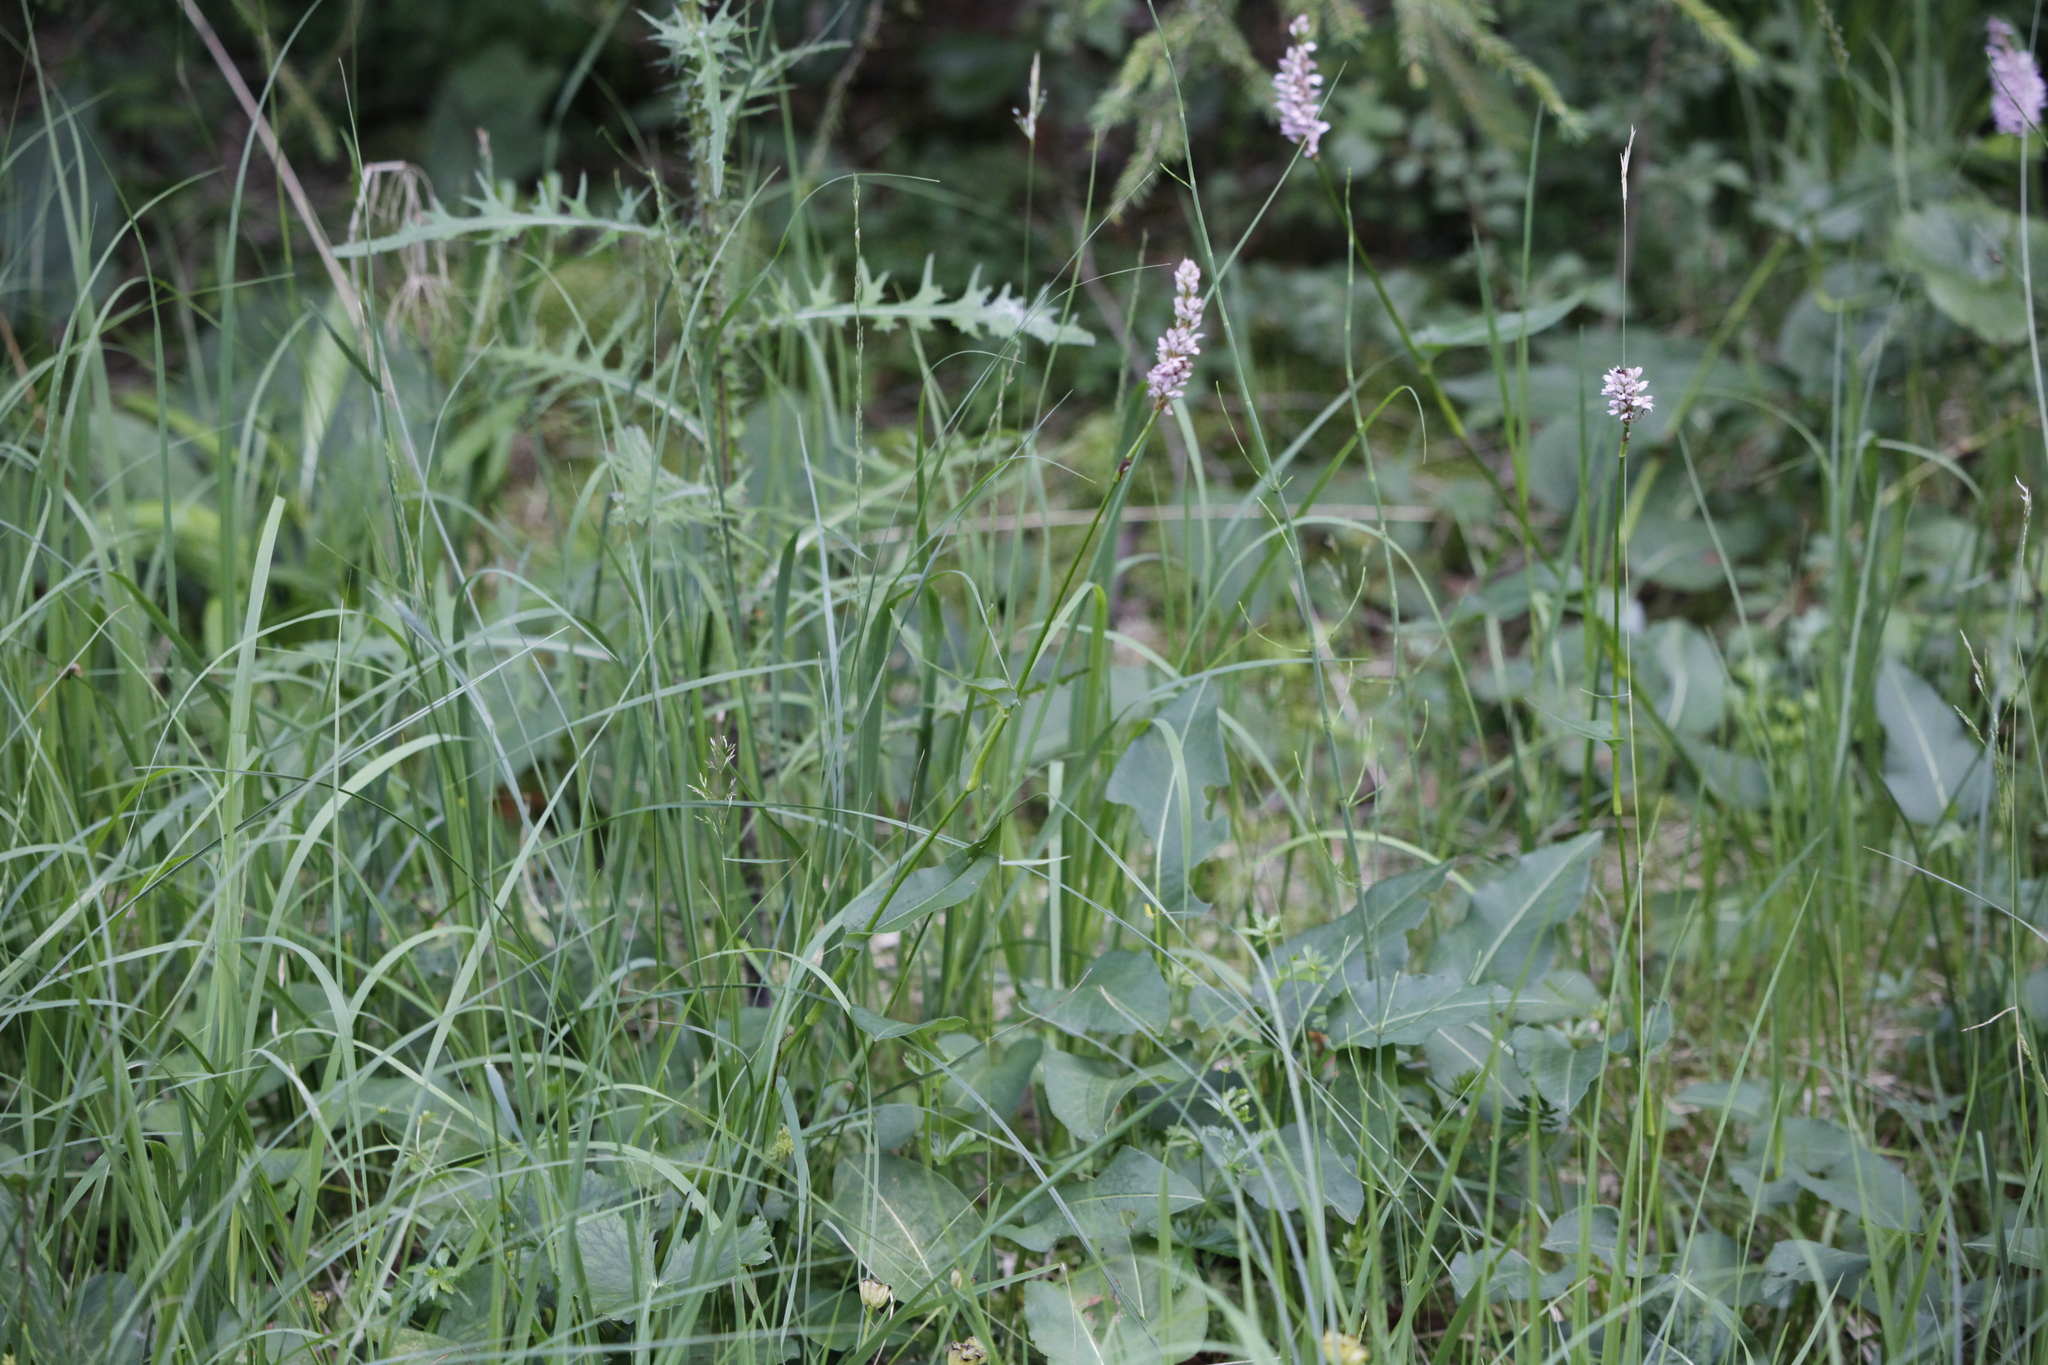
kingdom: Plantae
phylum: Tracheophyta
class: Magnoliopsida
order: Caryophyllales
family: Polygonaceae
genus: Bistorta
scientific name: Bistorta officinalis
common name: Common bistort
